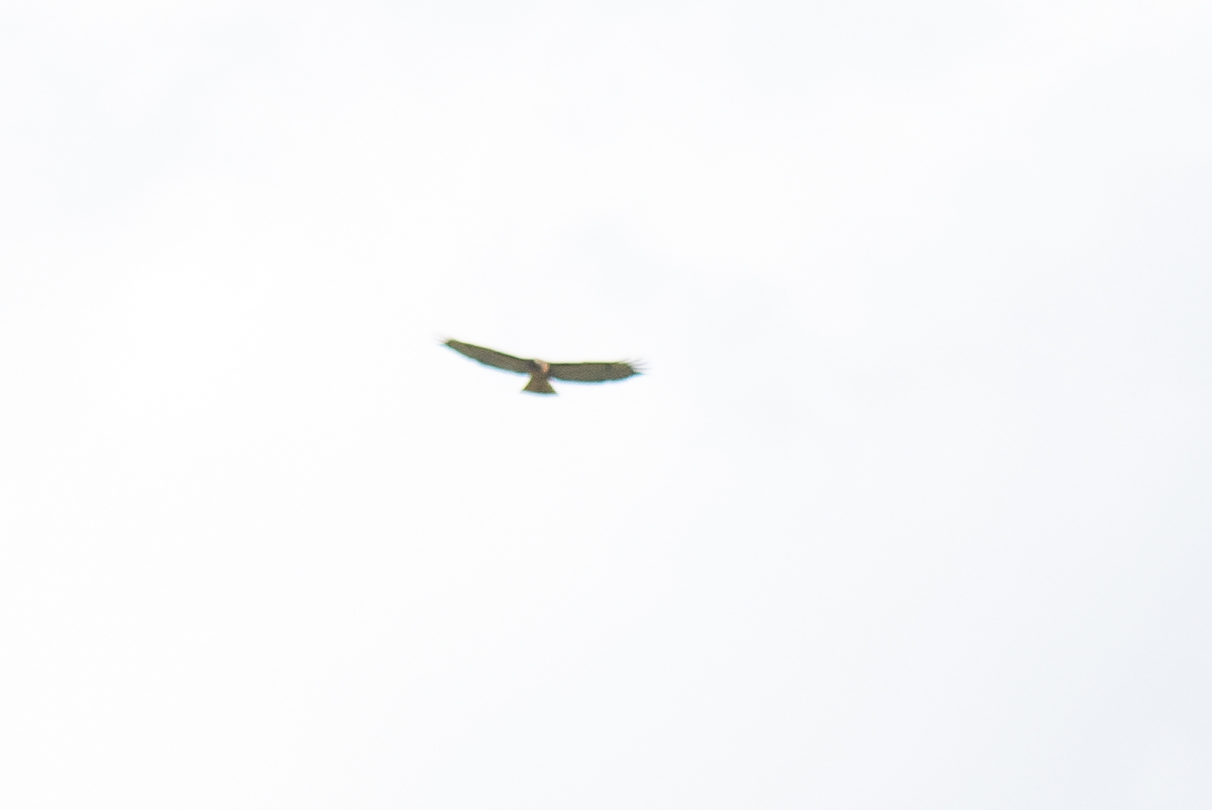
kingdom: Animalia
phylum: Chordata
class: Aves
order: Accipitriformes
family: Accipitridae
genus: Buteo
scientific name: Buteo jamaicensis
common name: Red-tailed hawk
